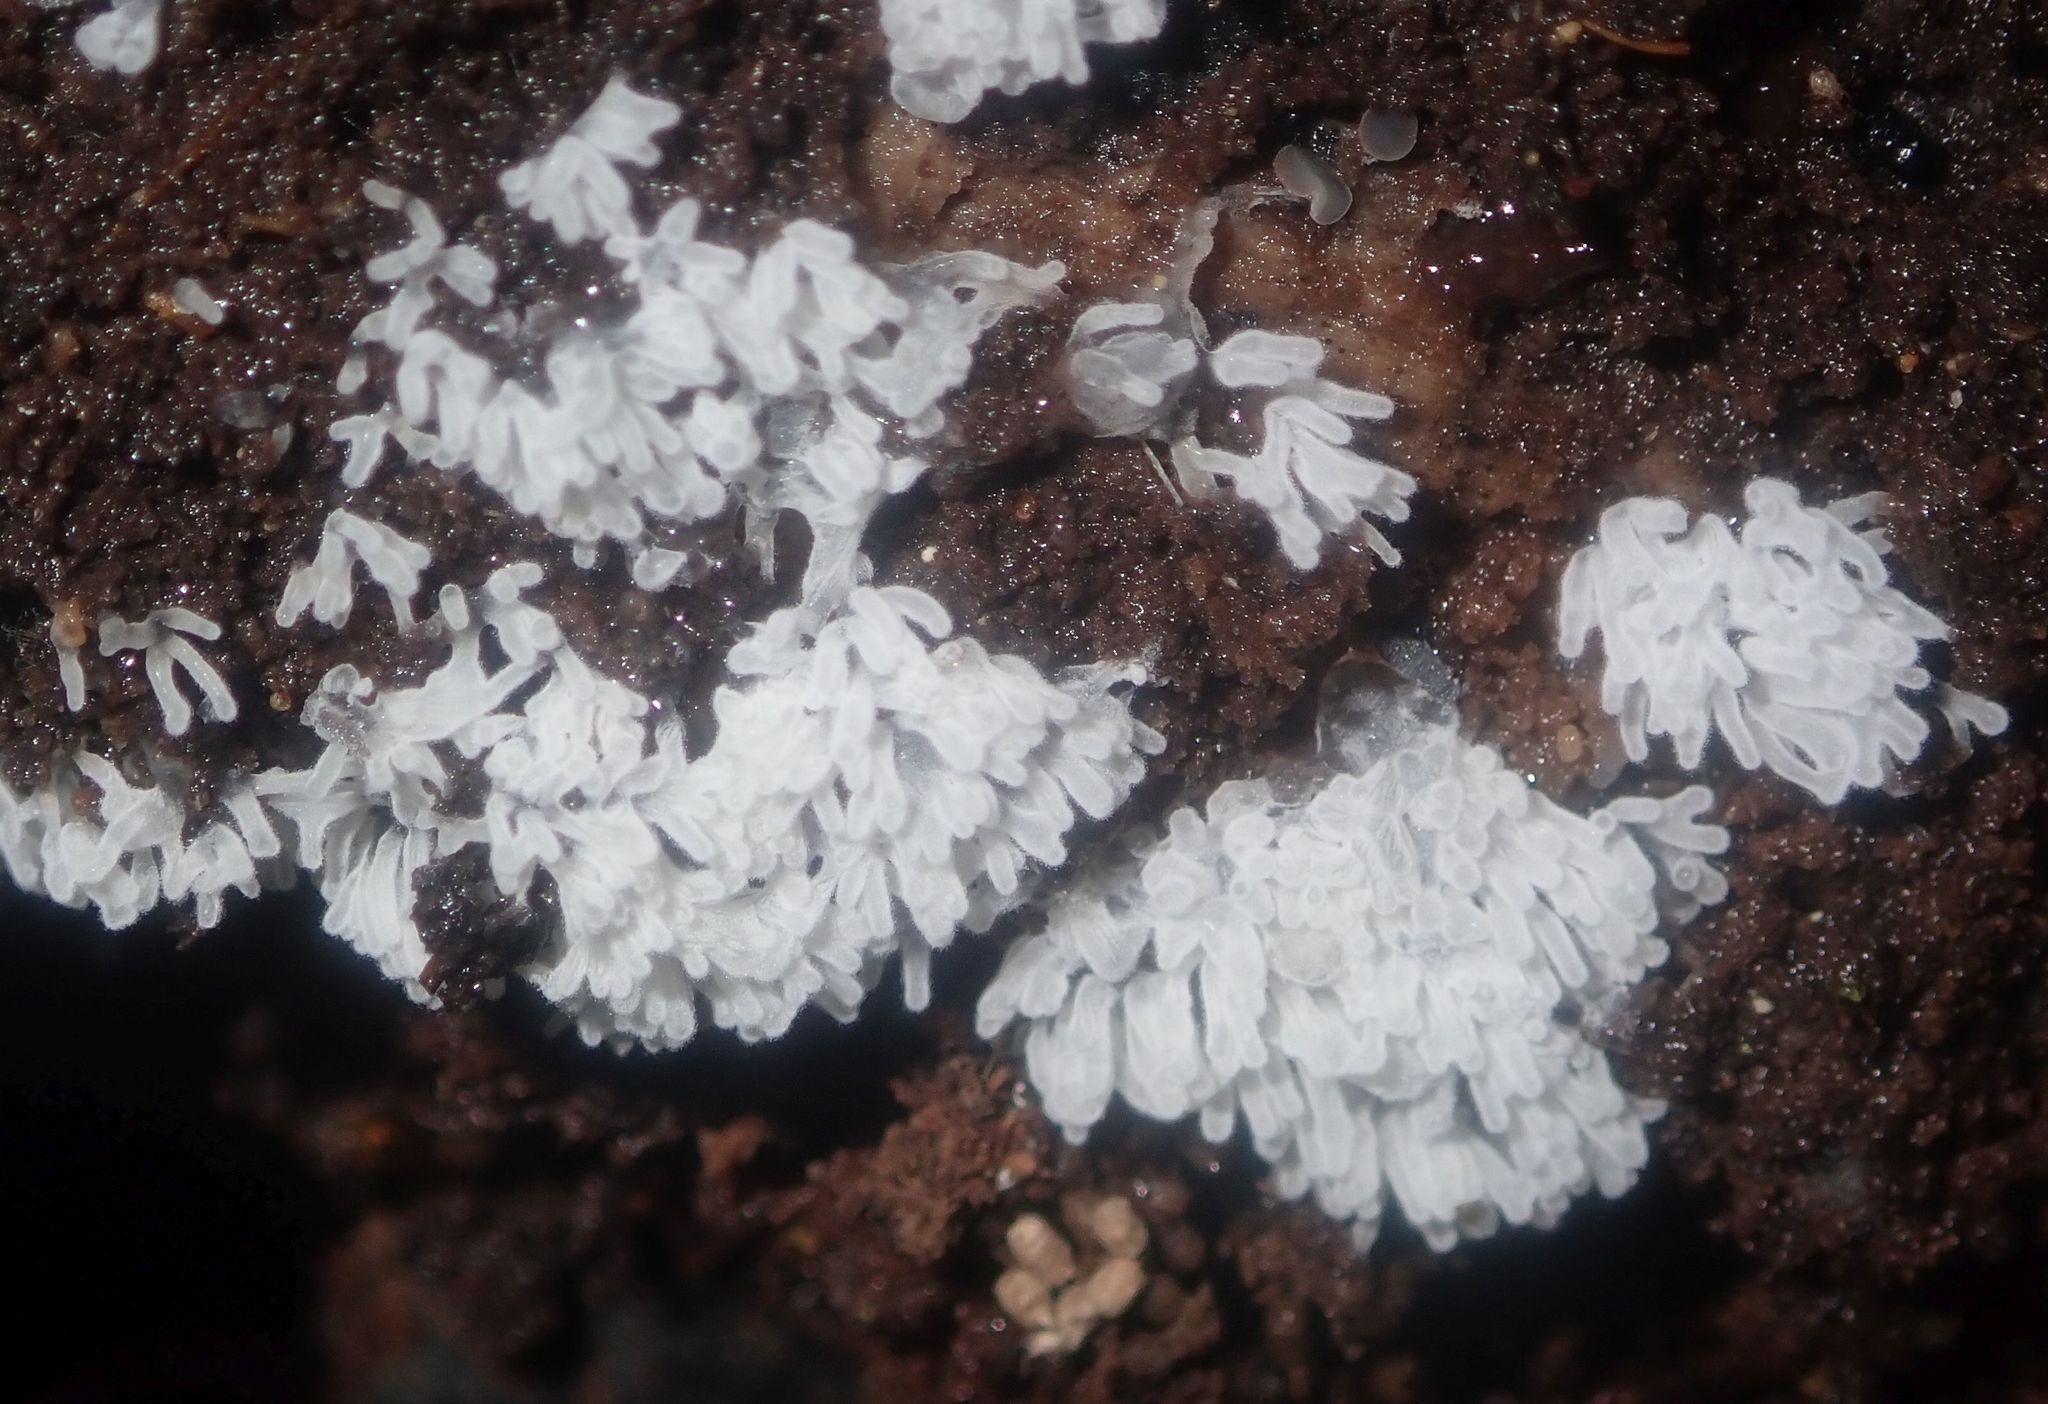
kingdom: Protozoa
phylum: Mycetozoa
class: Protosteliomycetes
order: Ceratiomyxales
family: Ceratiomyxaceae
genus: Ceratiomyxa
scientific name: Ceratiomyxa fruticulosa
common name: Honeycomb coral slime mold
